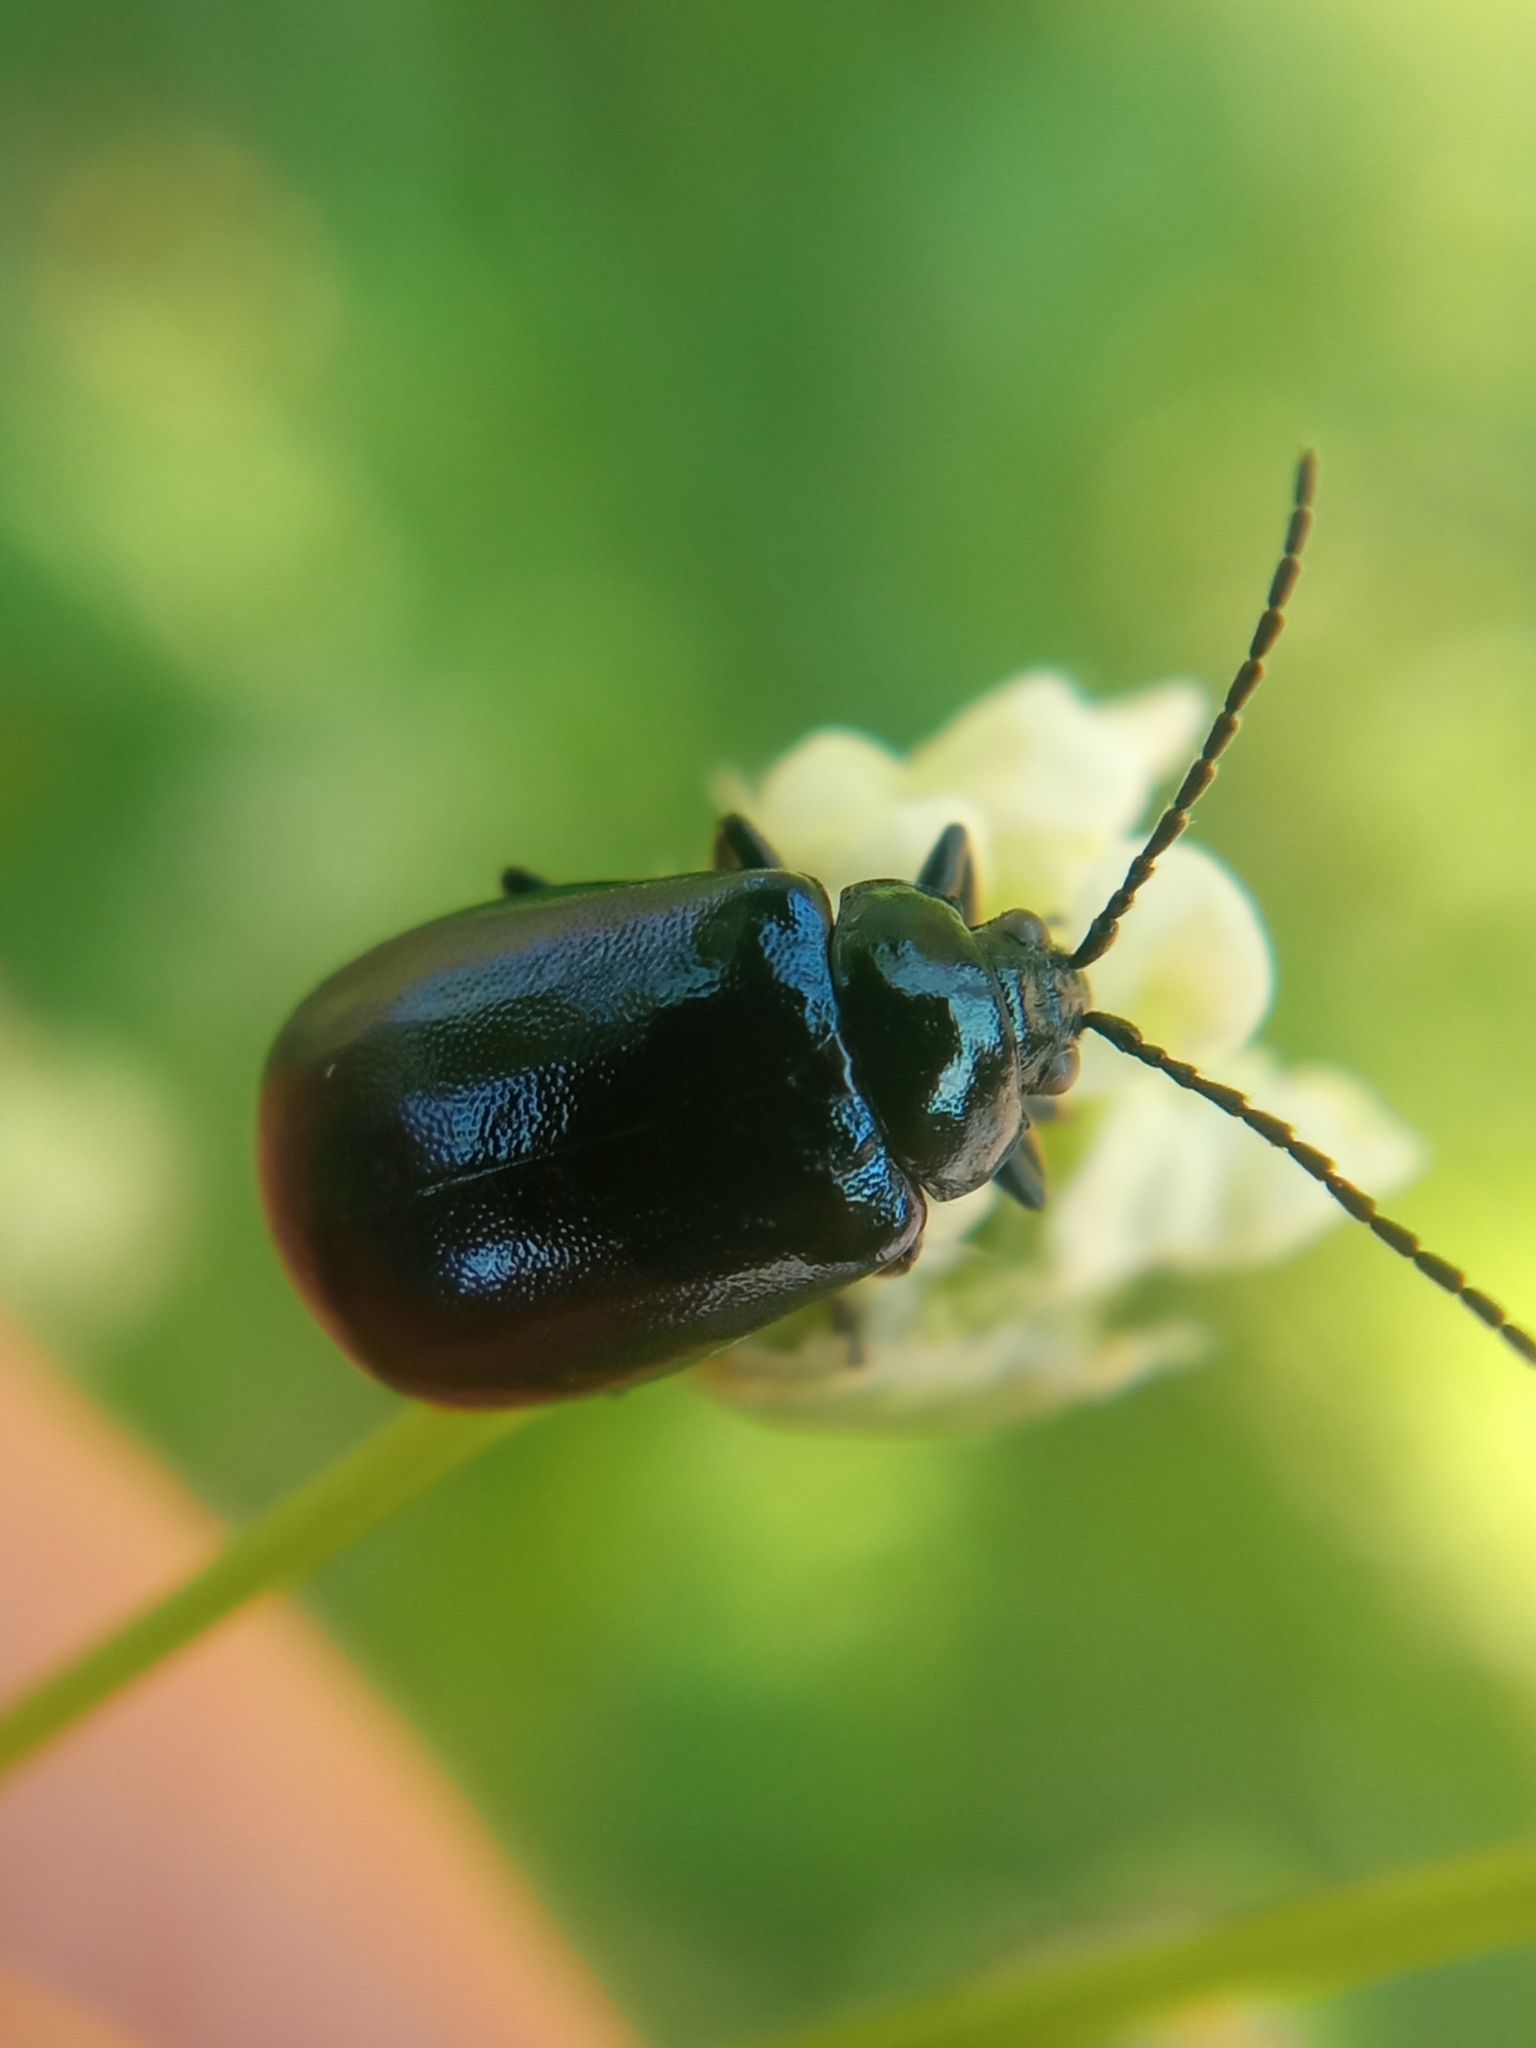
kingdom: Animalia
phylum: Arthropoda
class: Insecta
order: Coleoptera
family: Chrysomelidae
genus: Agelastica
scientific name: Agelastica alni
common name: Alder leaf beetle
